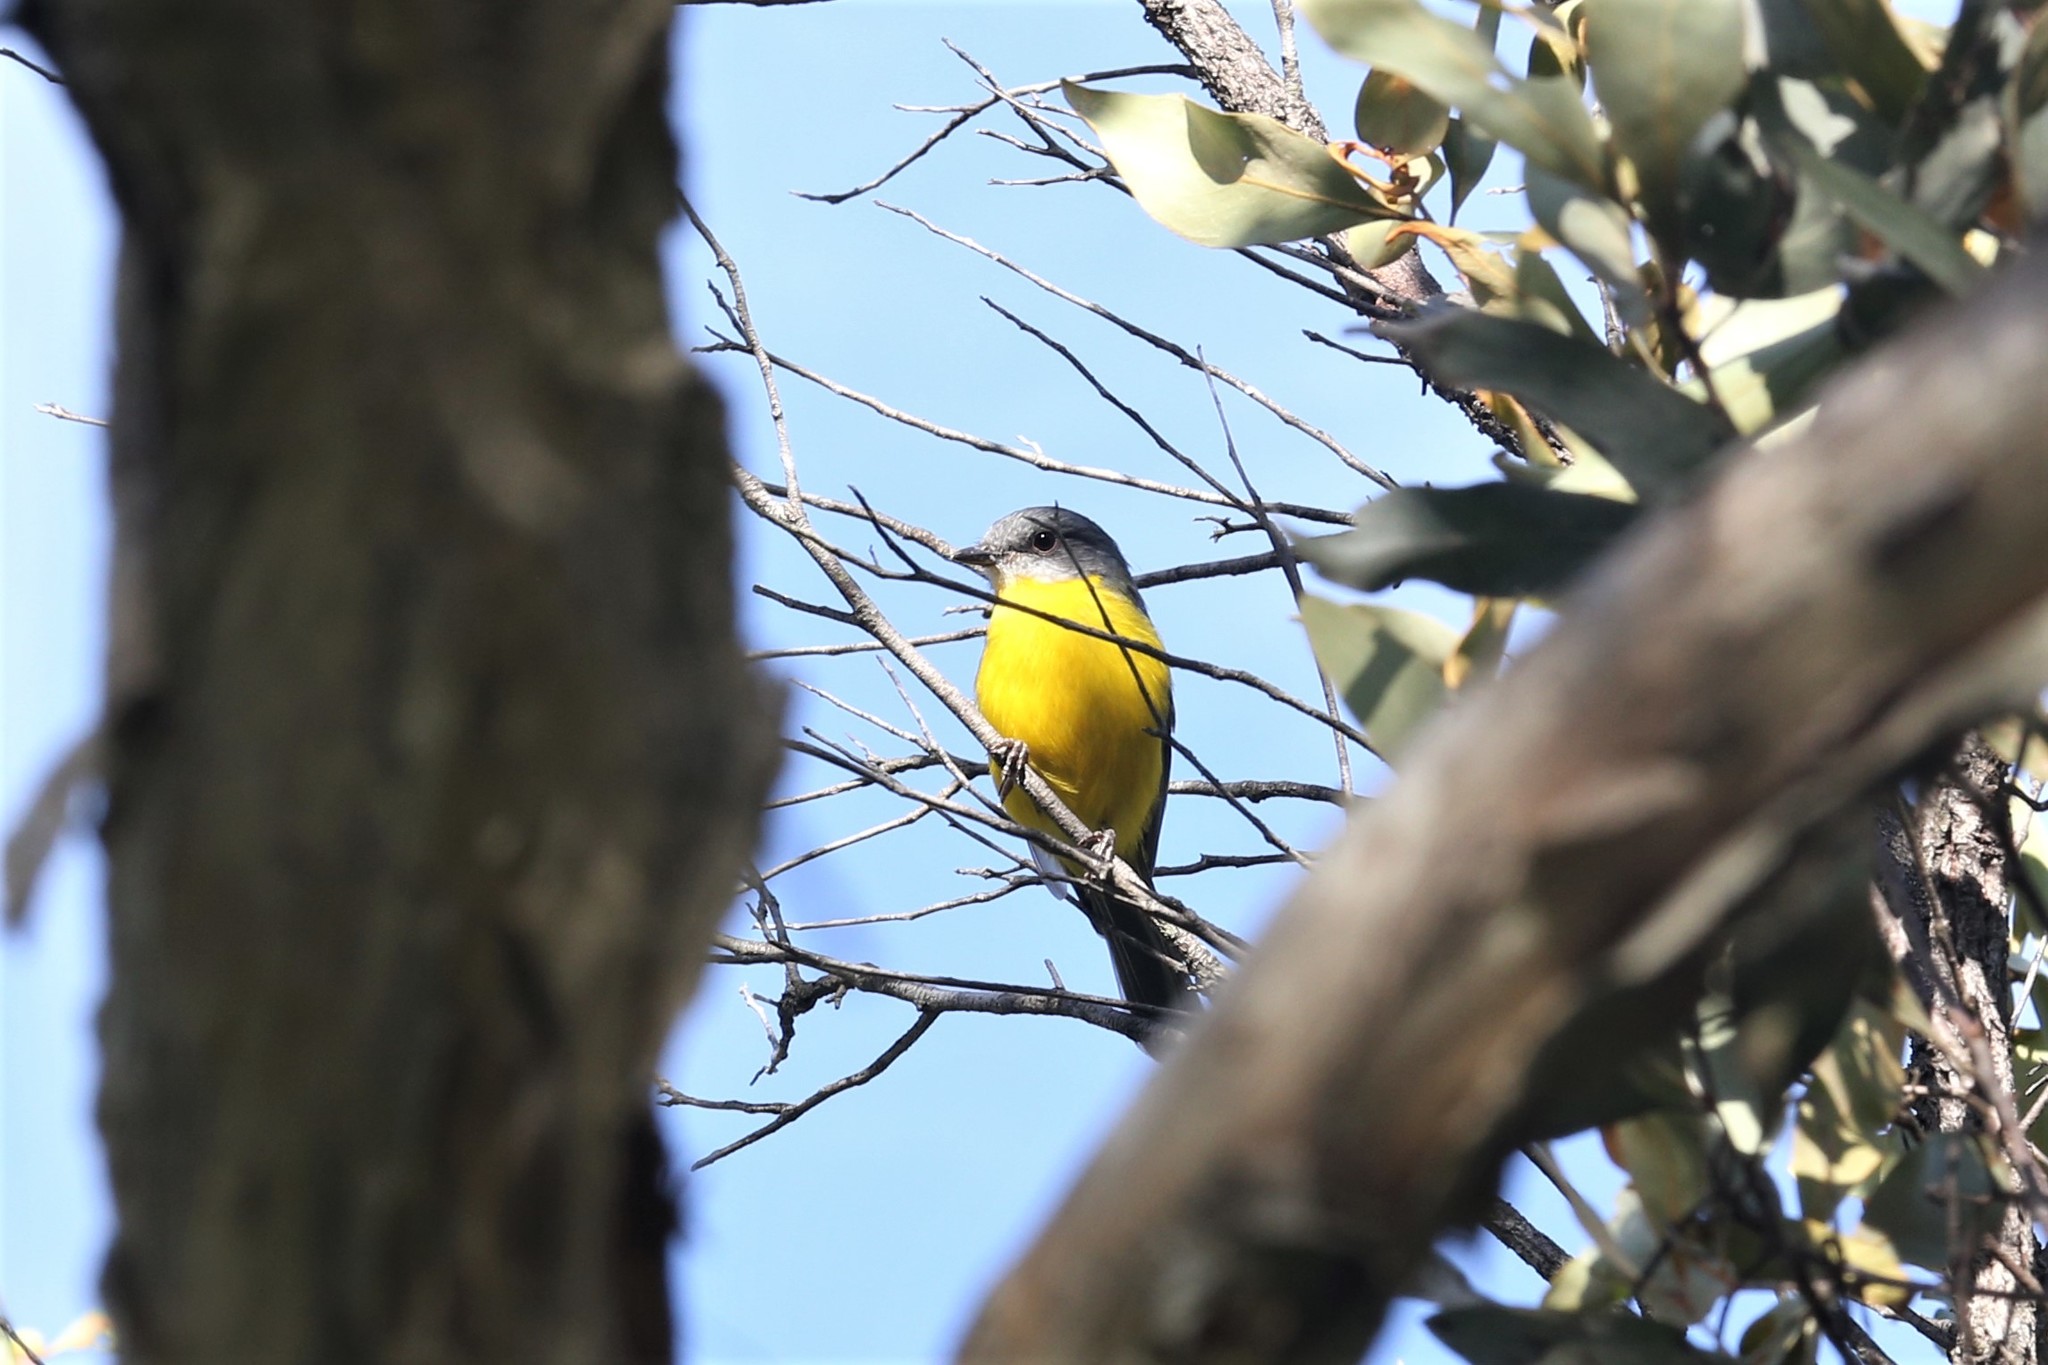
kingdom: Animalia
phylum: Chordata
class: Aves
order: Passeriformes
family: Petroicidae
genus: Eopsaltria
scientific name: Eopsaltria australis
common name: Eastern yellow robin
